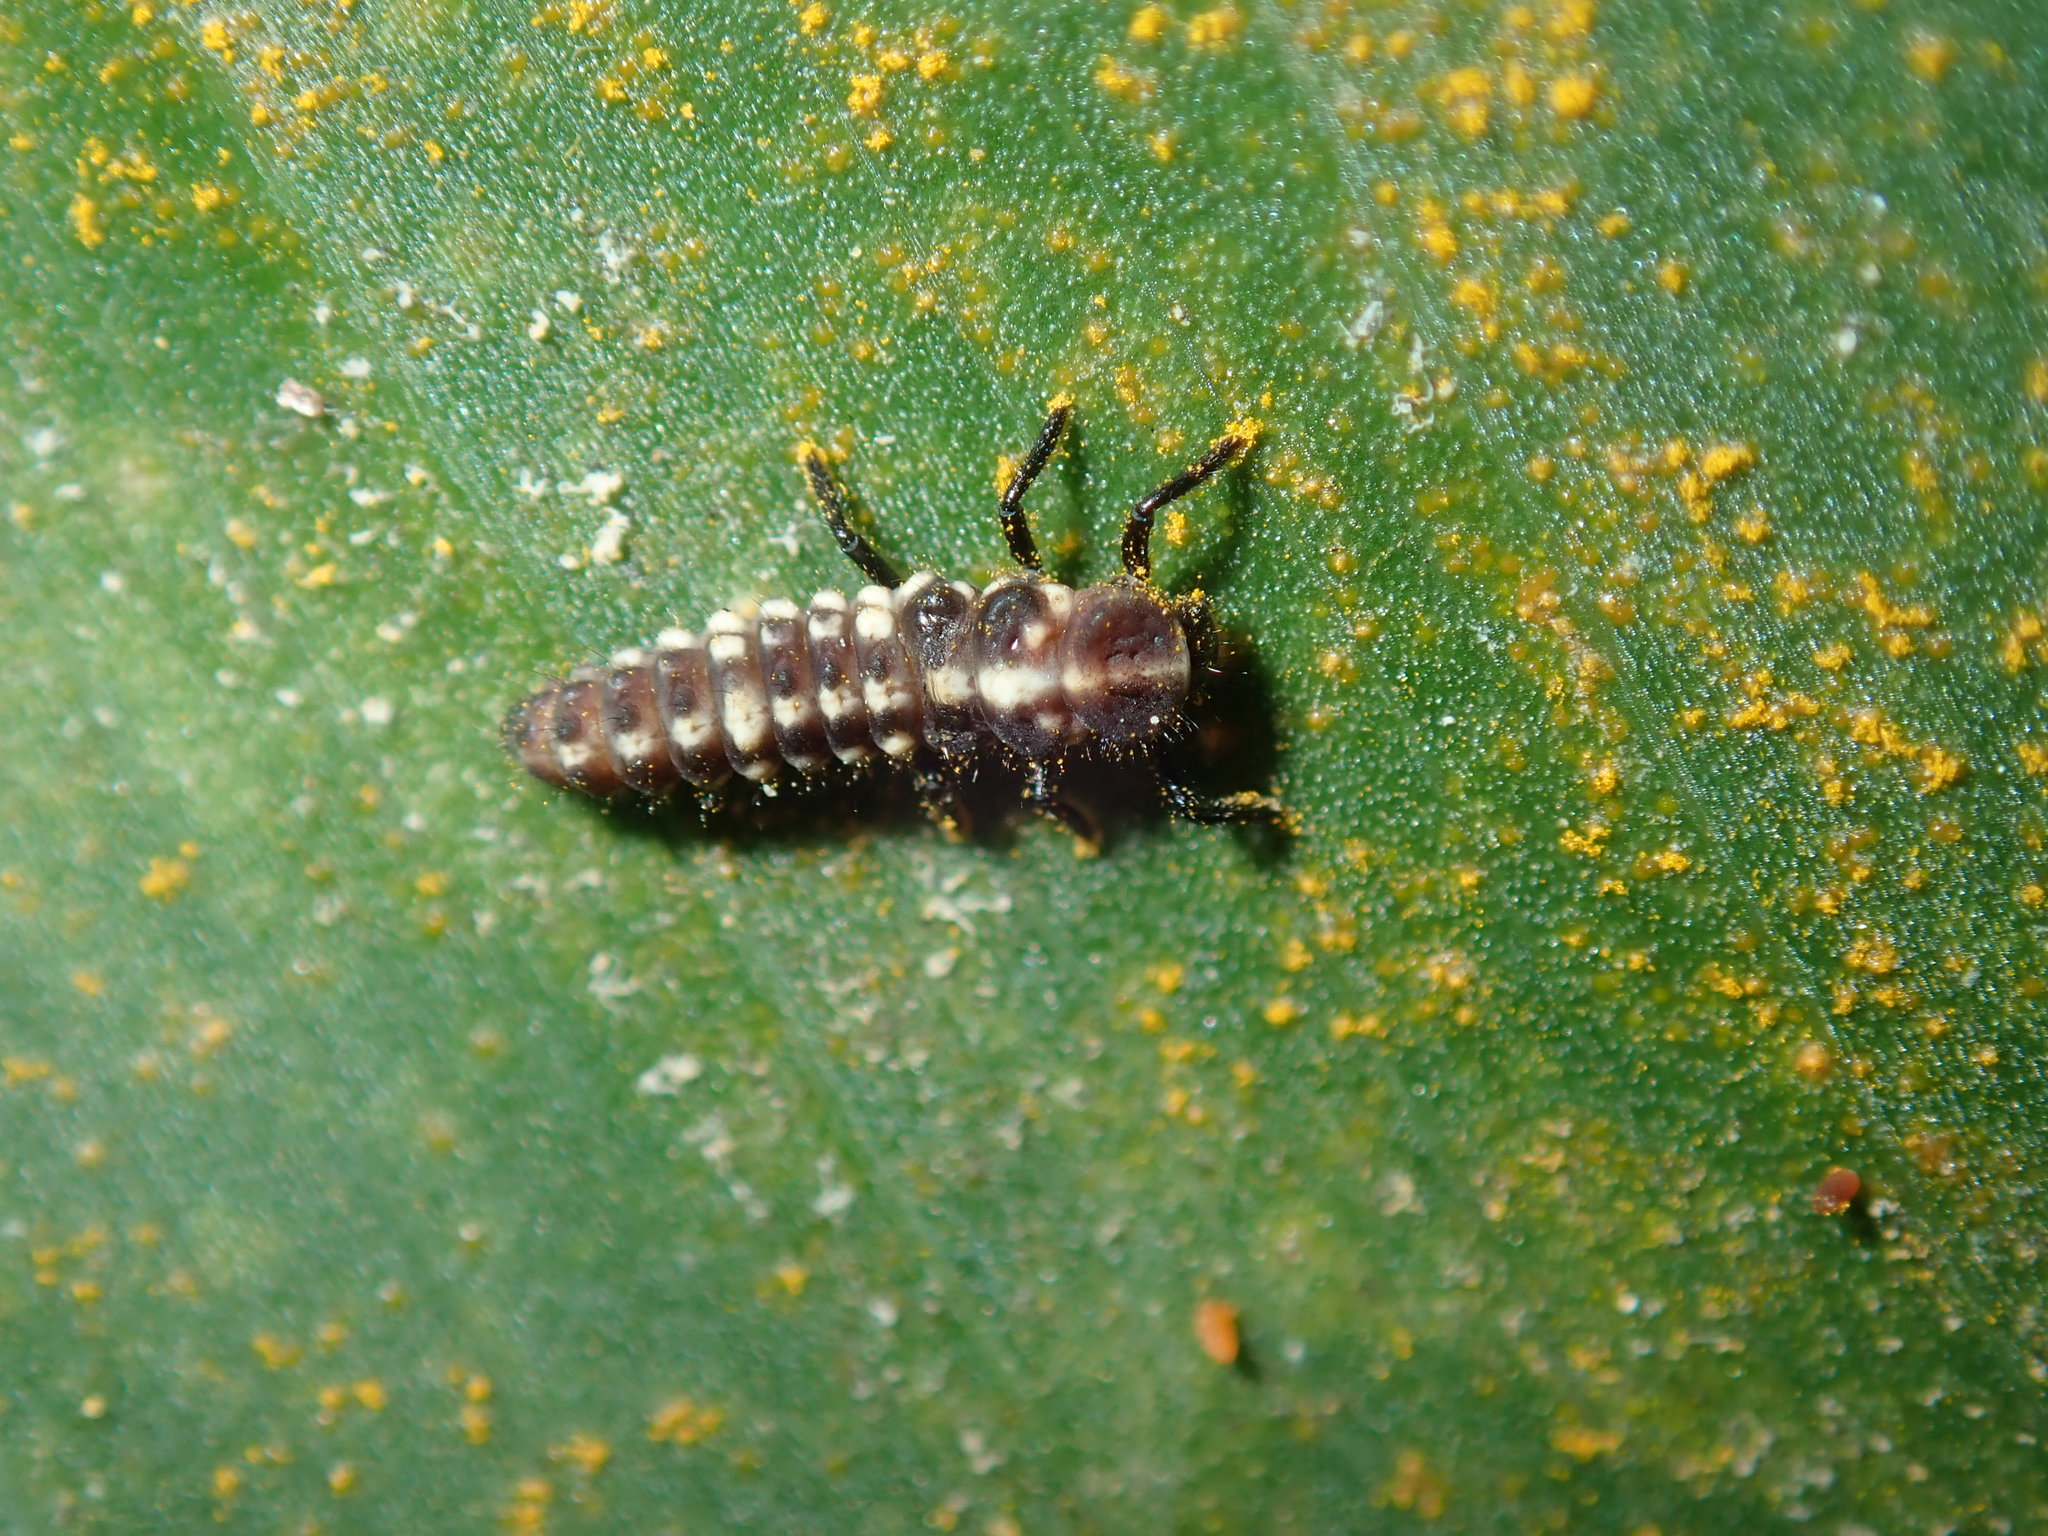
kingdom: Animalia
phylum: Arthropoda
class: Insecta
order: Coleoptera
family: Coccinellidae
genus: Micraspis
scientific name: Micraspis frenata
